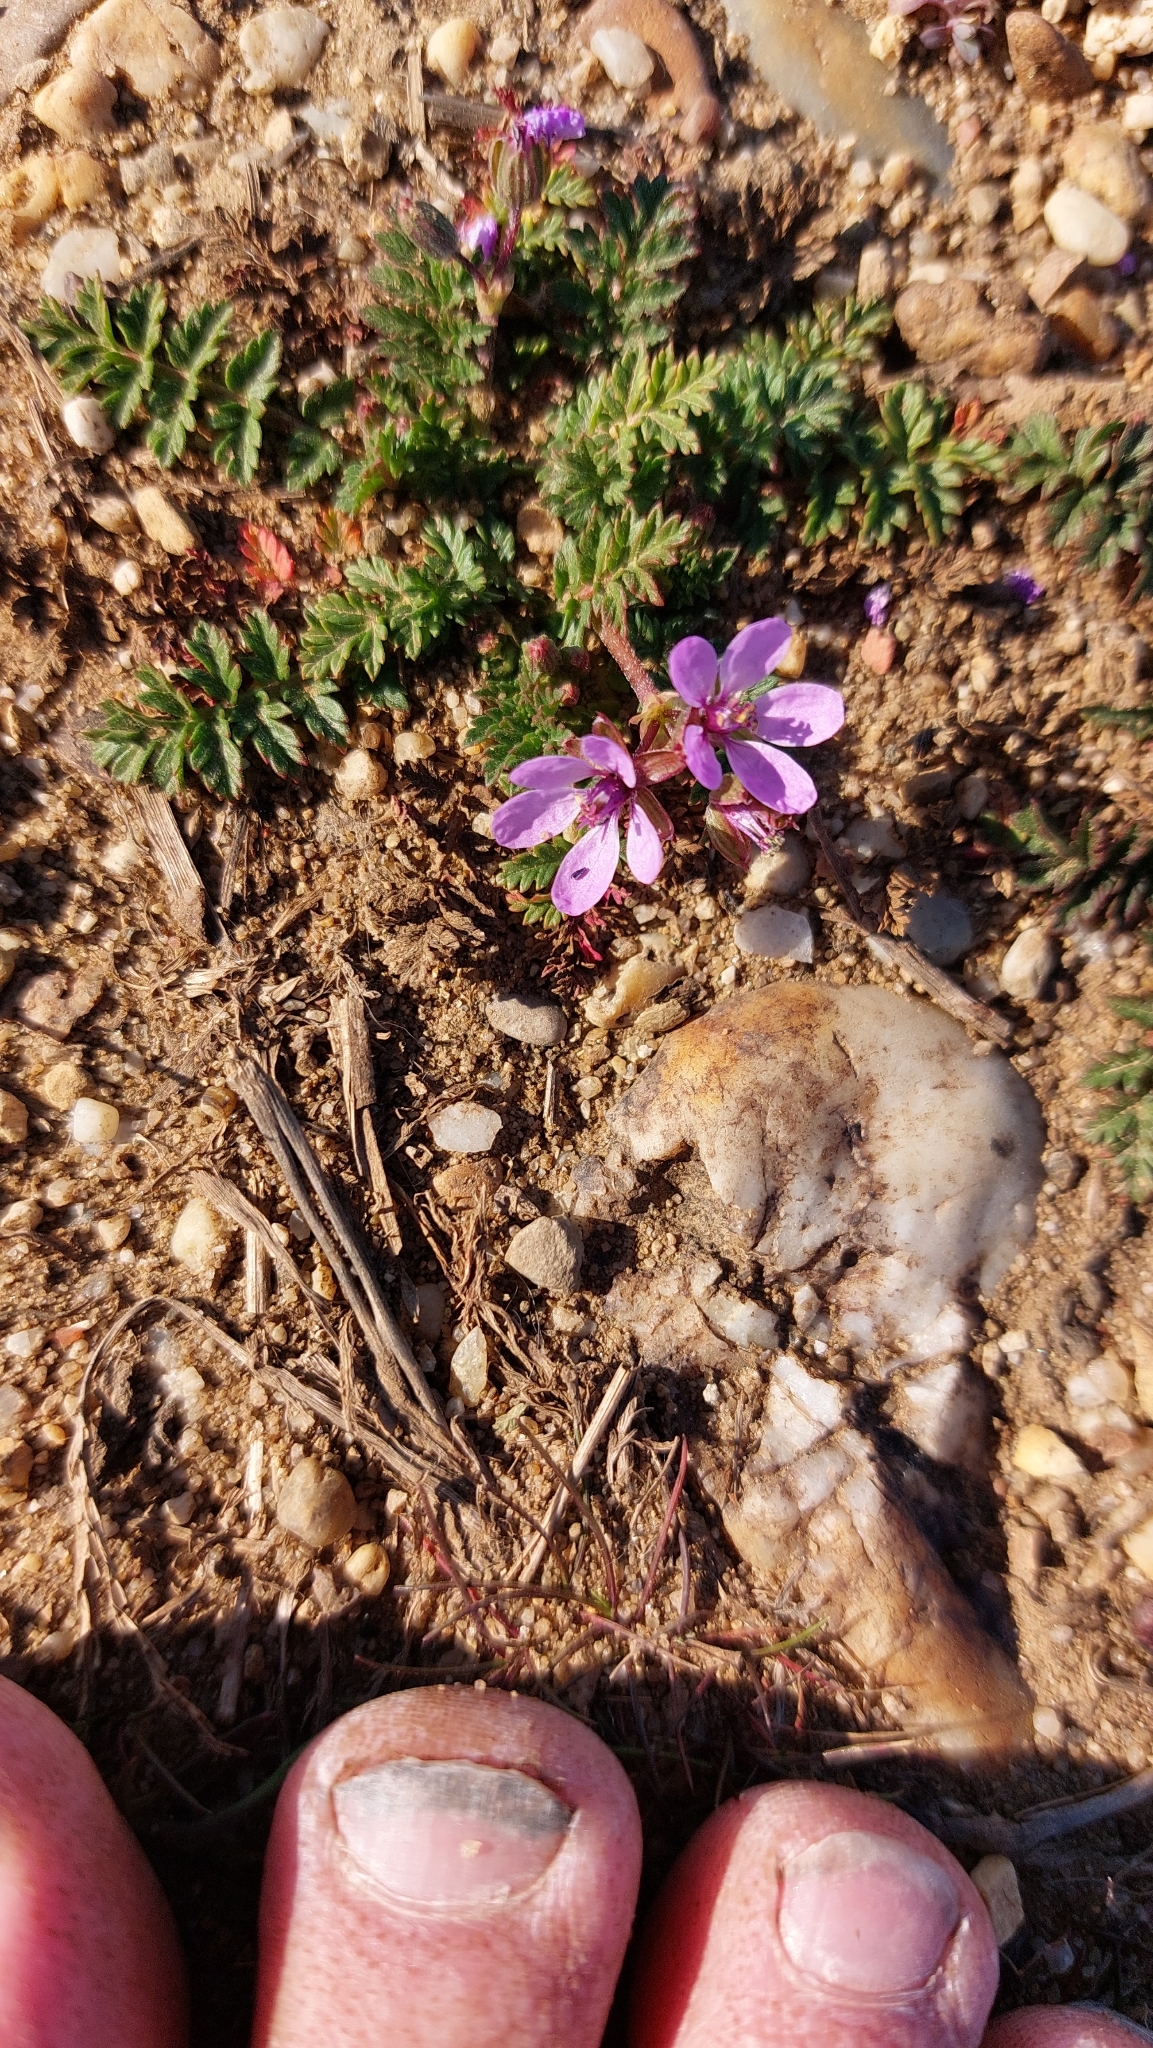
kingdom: Plantae
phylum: Tracheophyta
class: Magnoliopsida
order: Geraniales
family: Geraniaceae
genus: Erodium
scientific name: Erodium cicutarium
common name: Common stork's-bill
